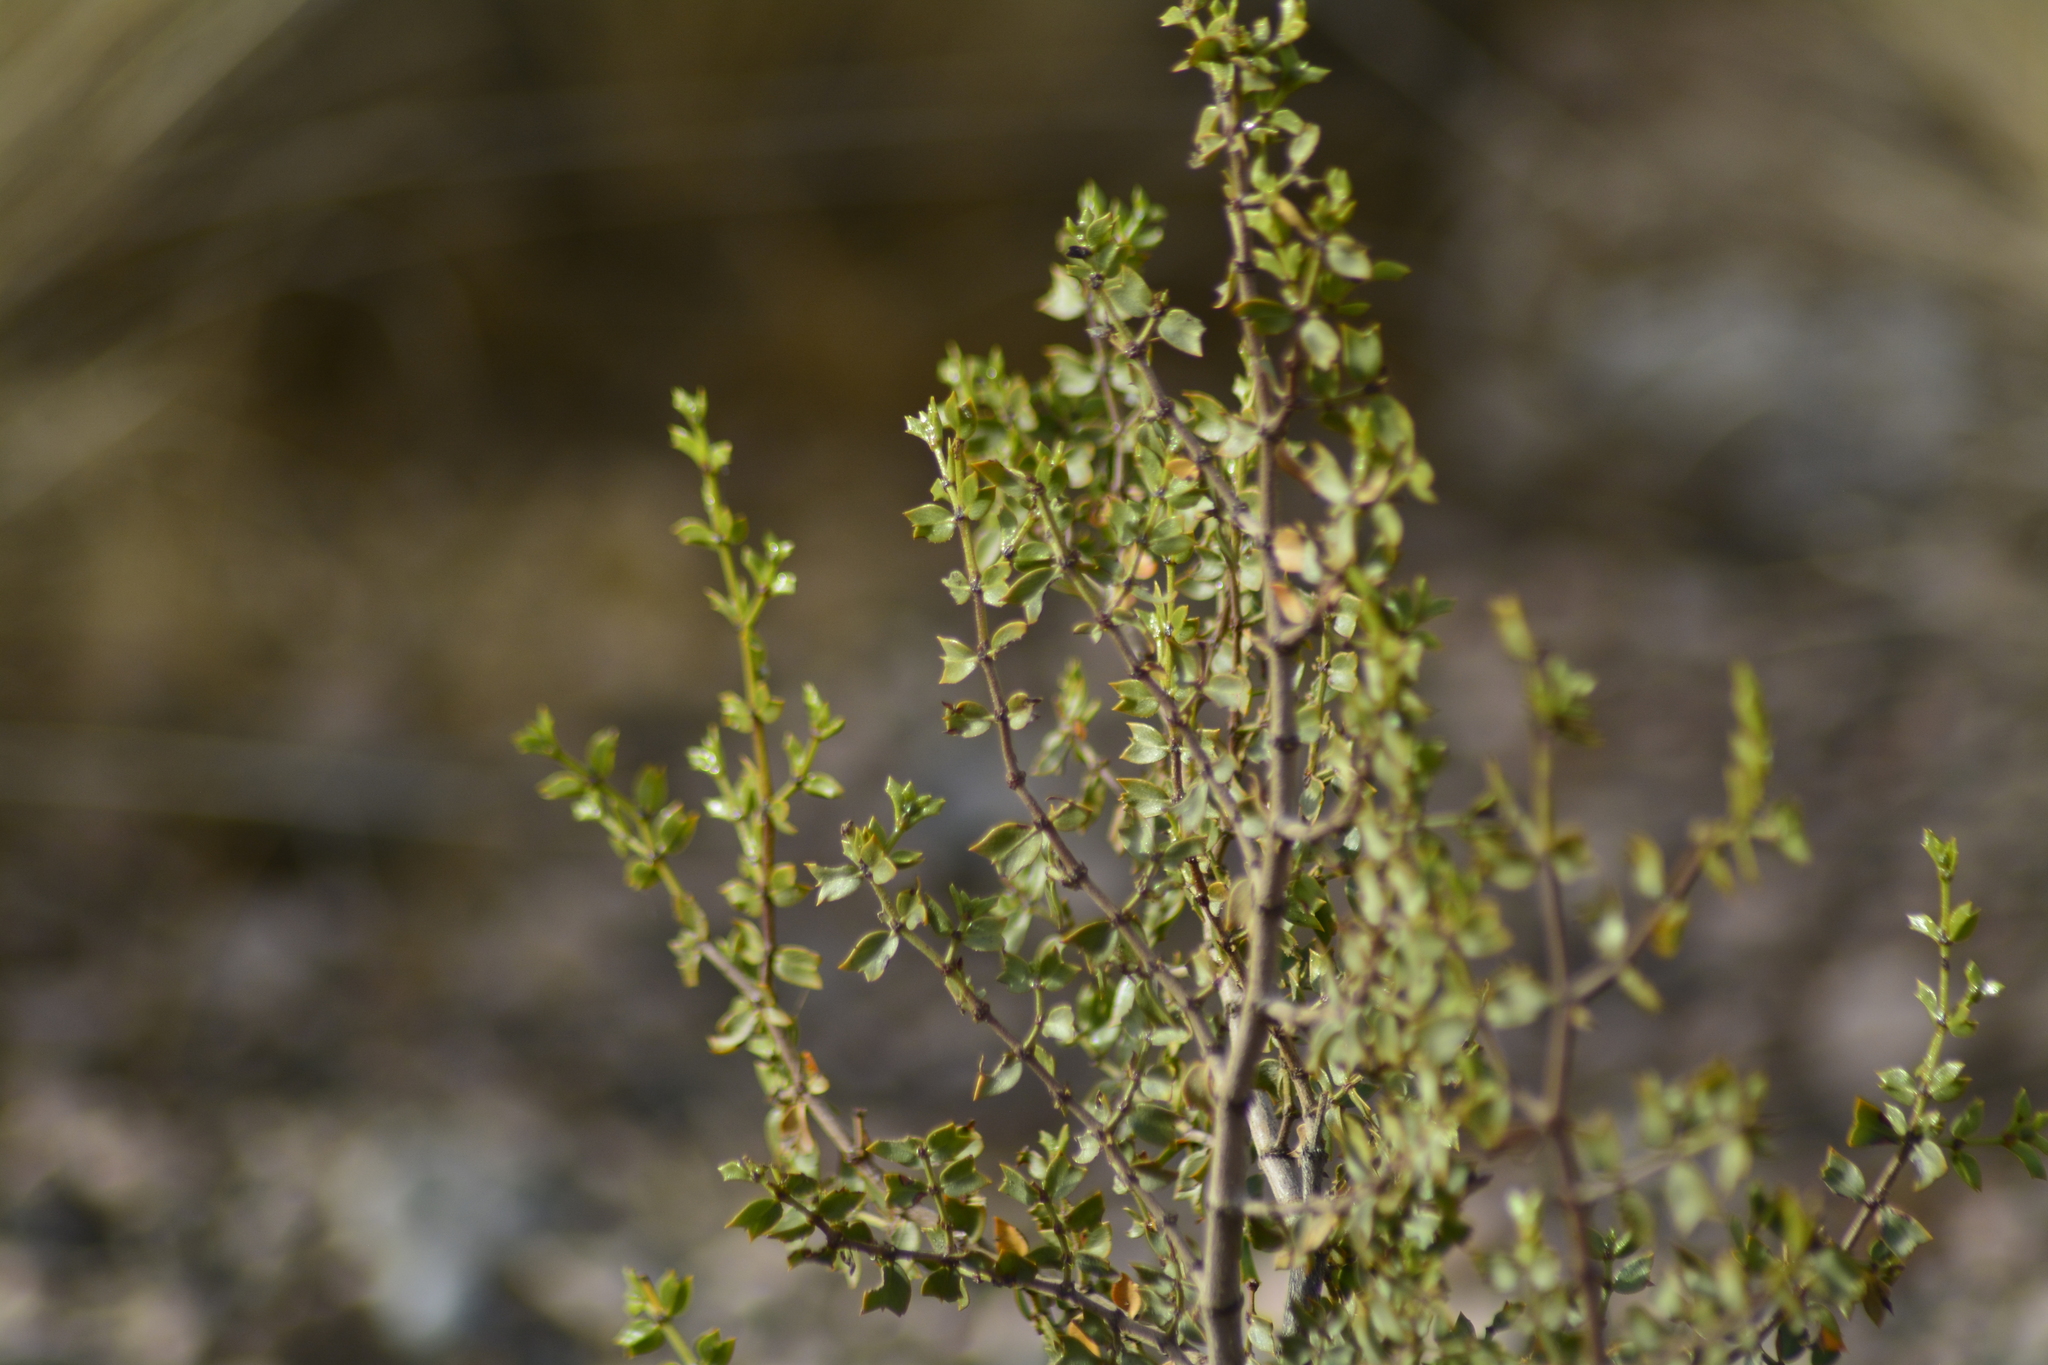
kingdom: Plantae
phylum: Tracheophyta
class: Magnoliopsida
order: Zygophyllales
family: Zygophyllaceae
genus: Larrea
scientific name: Larrea cuneifolia
